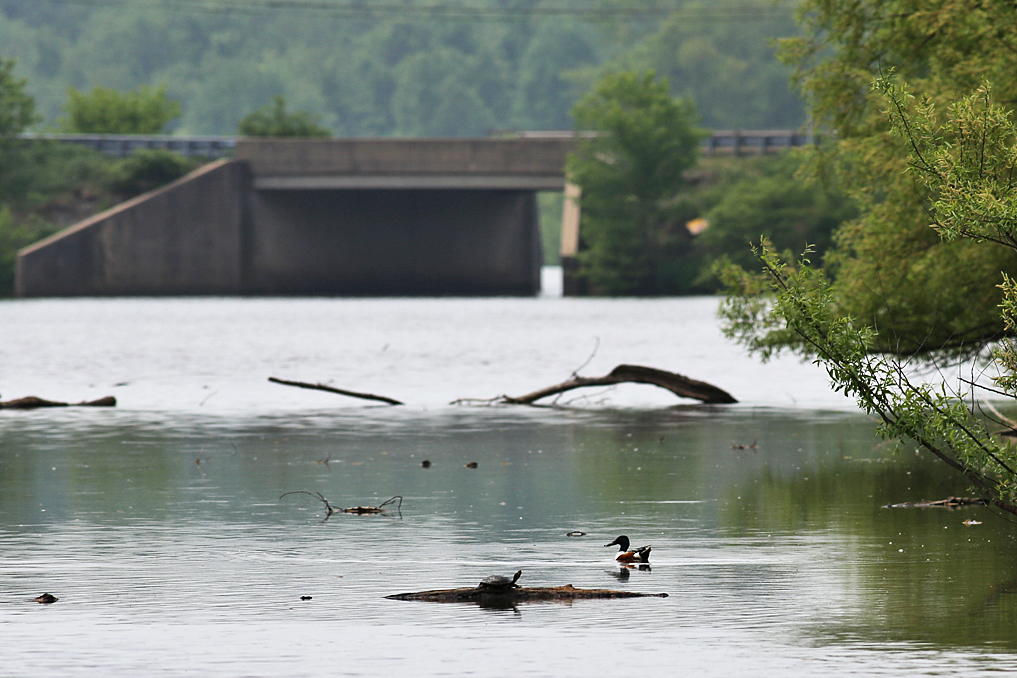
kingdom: Animalia
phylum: Chordata
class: Aves
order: Anseriformes
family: Anatidae
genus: Spatula
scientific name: Spatula clypeata
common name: Northern shoveler
